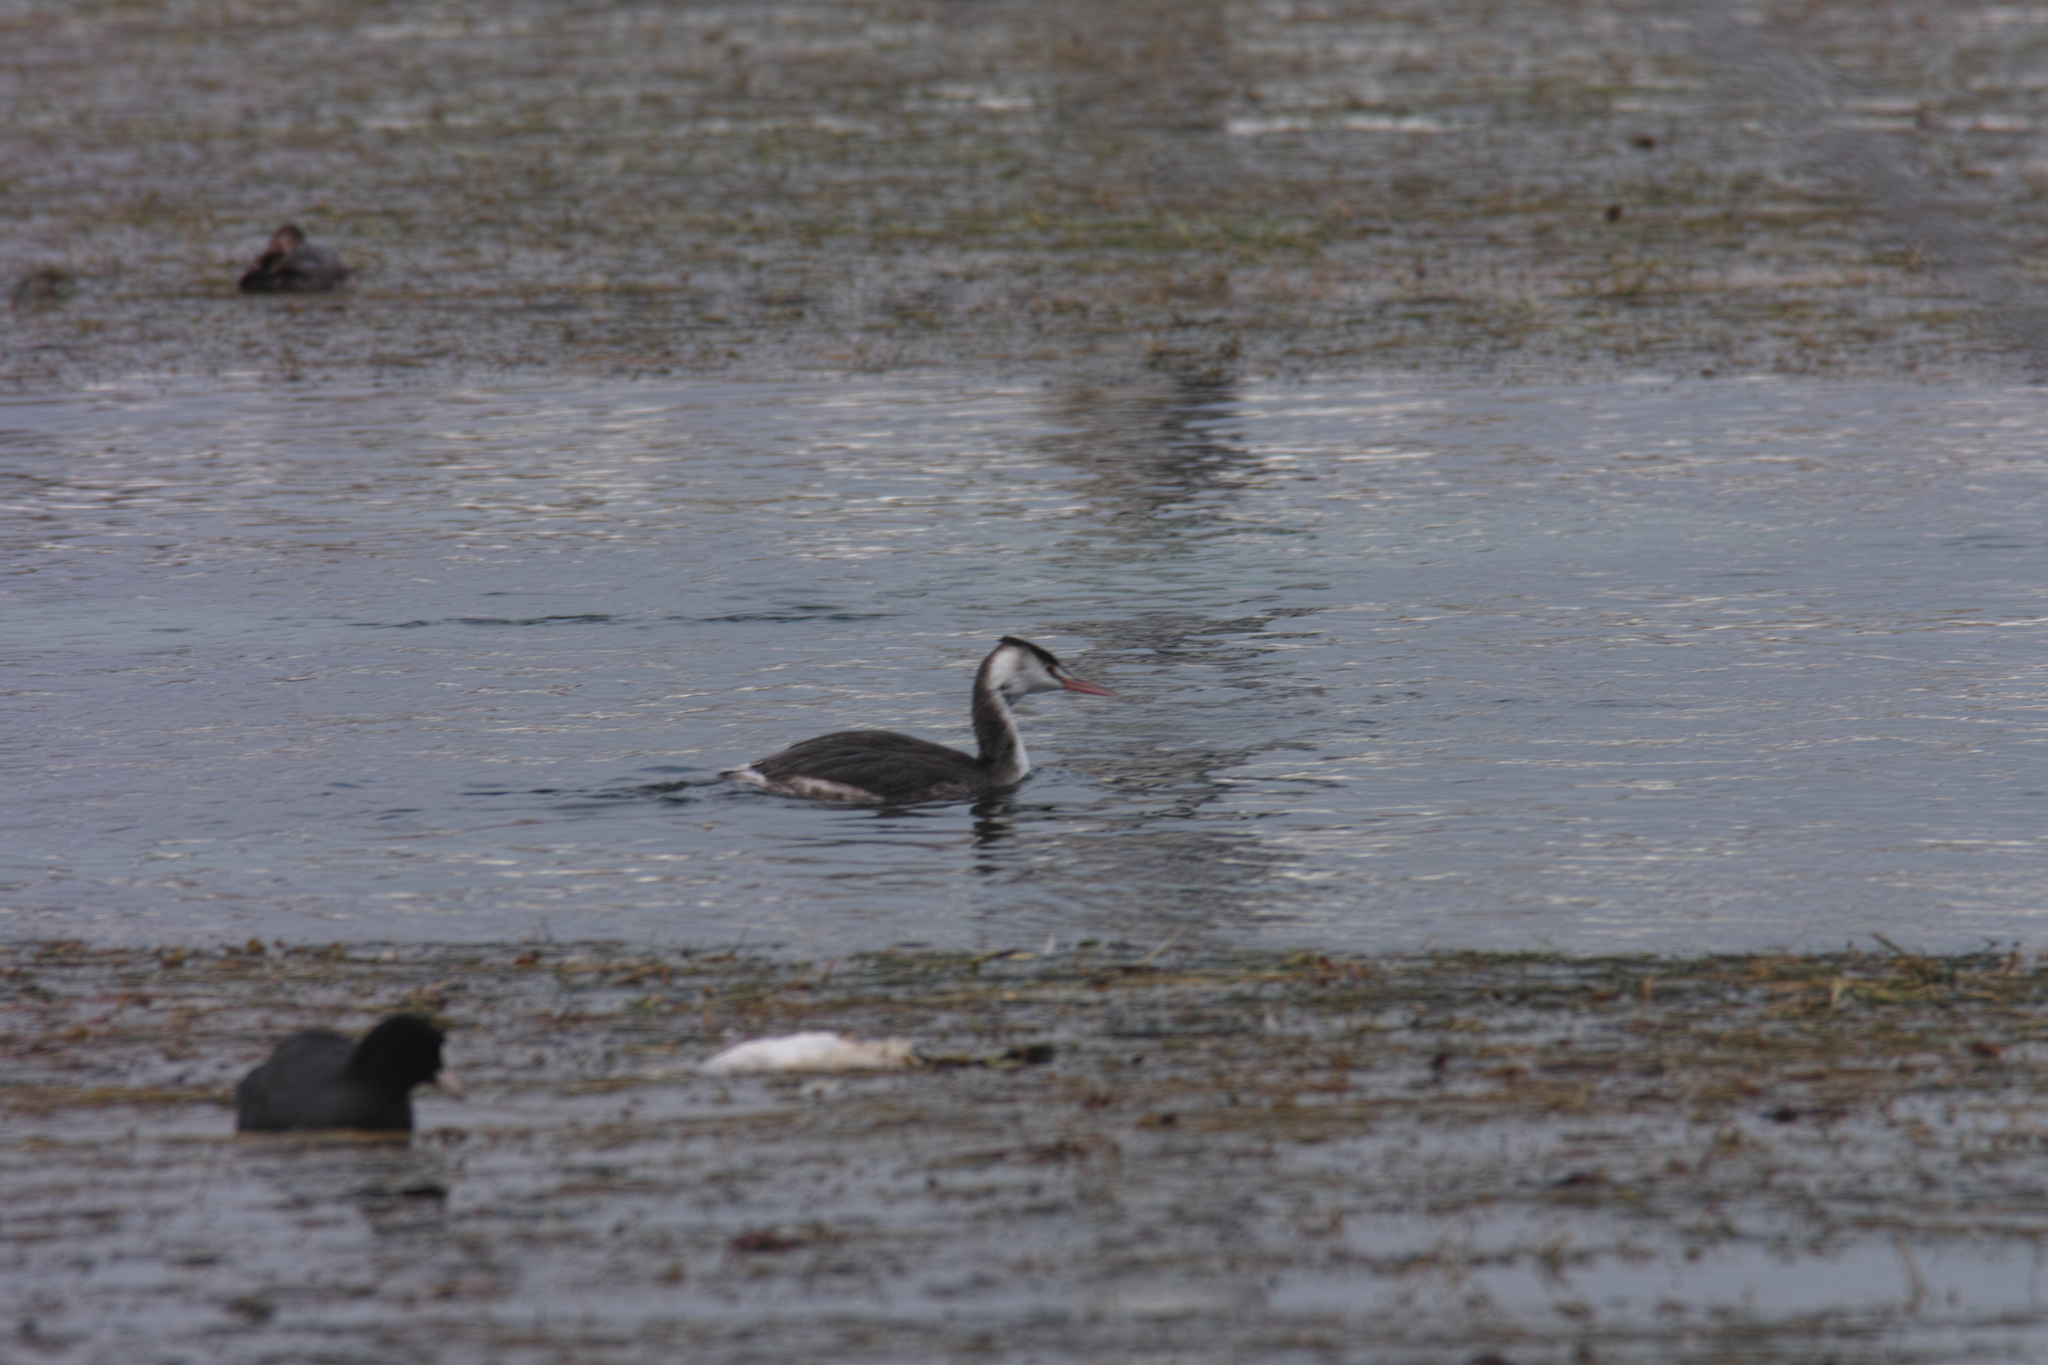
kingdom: Animalia
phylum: Chordata
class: Aves
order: Podicipediformes
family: Podicipedidae
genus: Podiceps
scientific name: Podiceps cristatus
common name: Great crested grebe
